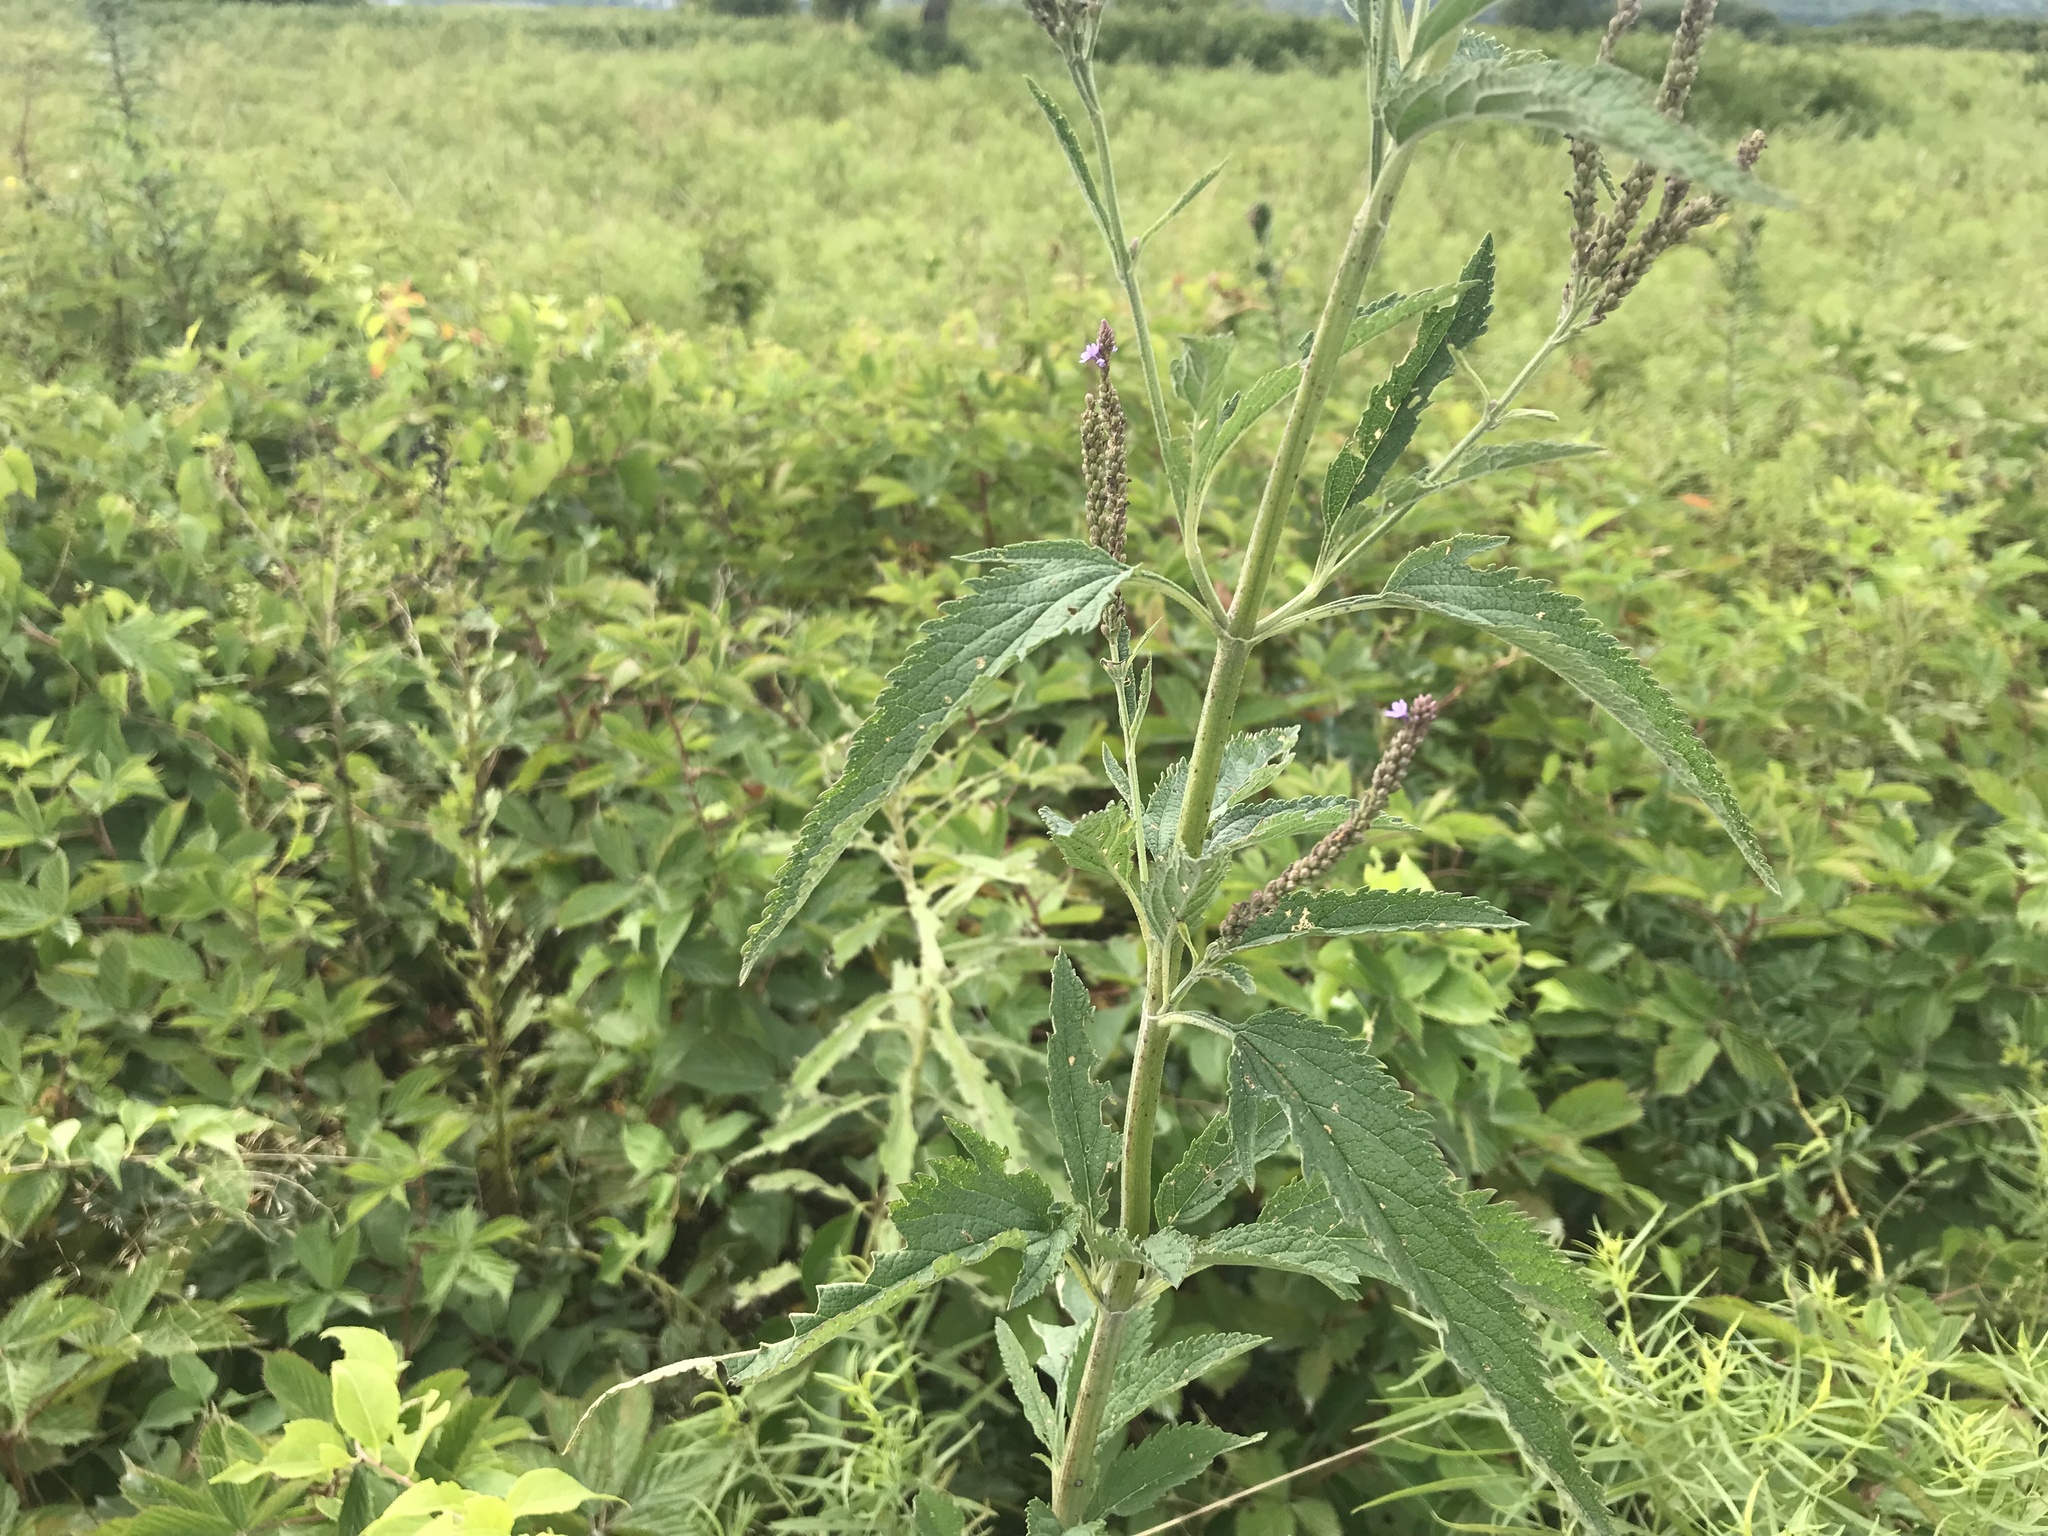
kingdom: Plantae
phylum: Tracheophyta
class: Magnoliopsida
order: Lamiales
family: Verbenaceae
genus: Verbena
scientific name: Verbena hastata
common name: American blue vervain
